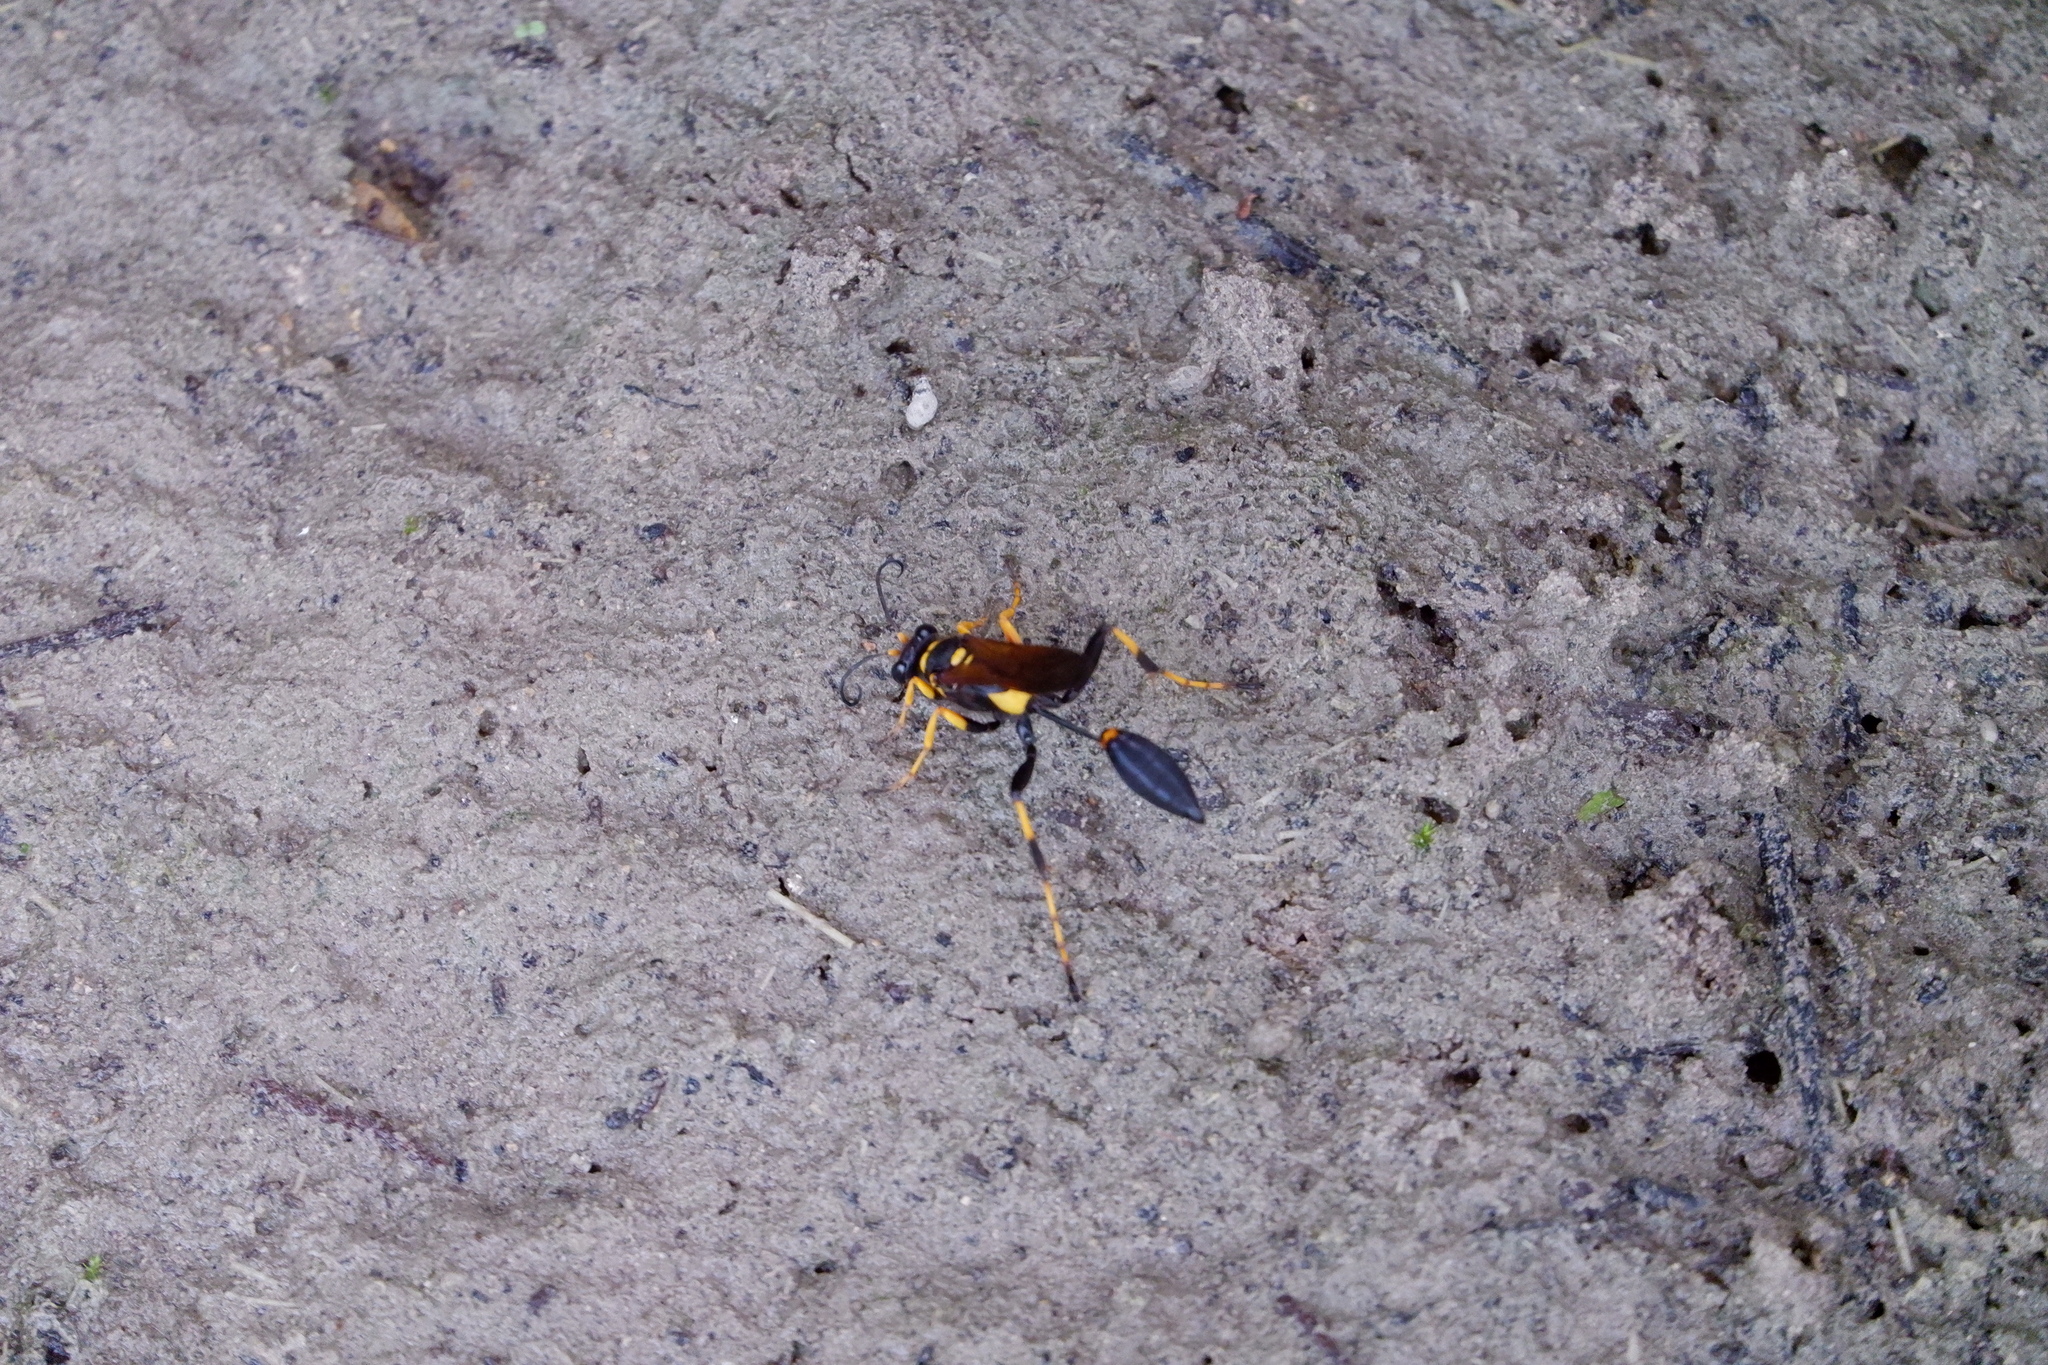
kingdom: Animalia
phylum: Arthropoda
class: Insecta
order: Hymenoptera
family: Sphecidae
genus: Sceliphron
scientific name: Sceliphron caementarium
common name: Mud dauber
